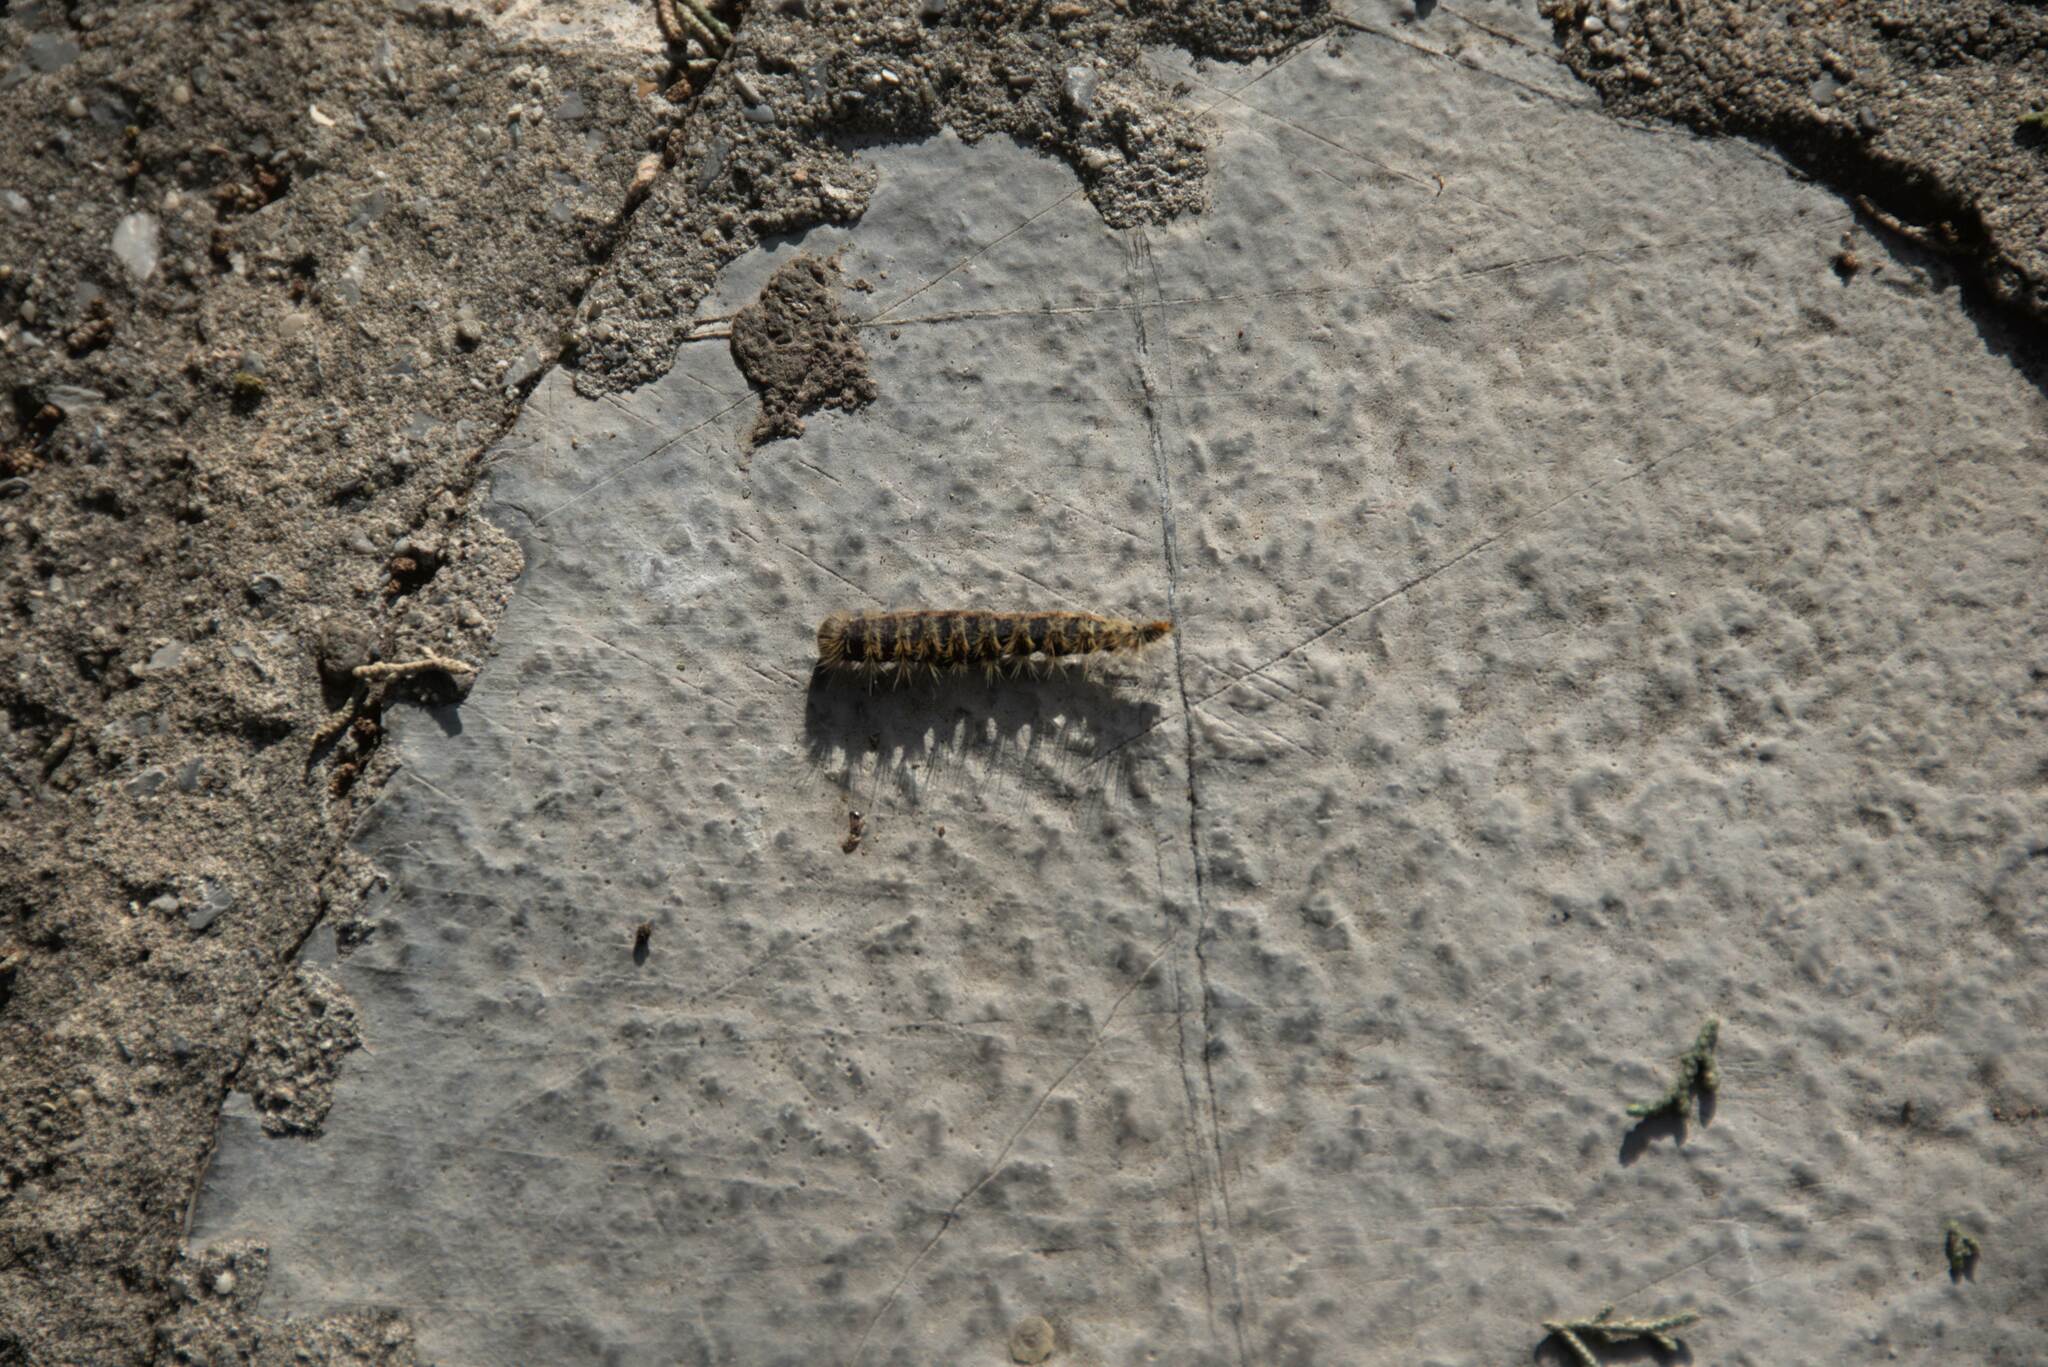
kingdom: Animalia
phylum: Arthropoda
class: Insecta
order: Lepidoptera
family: Notodontidae
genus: Thaumetopoea
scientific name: Thaumetopoea
